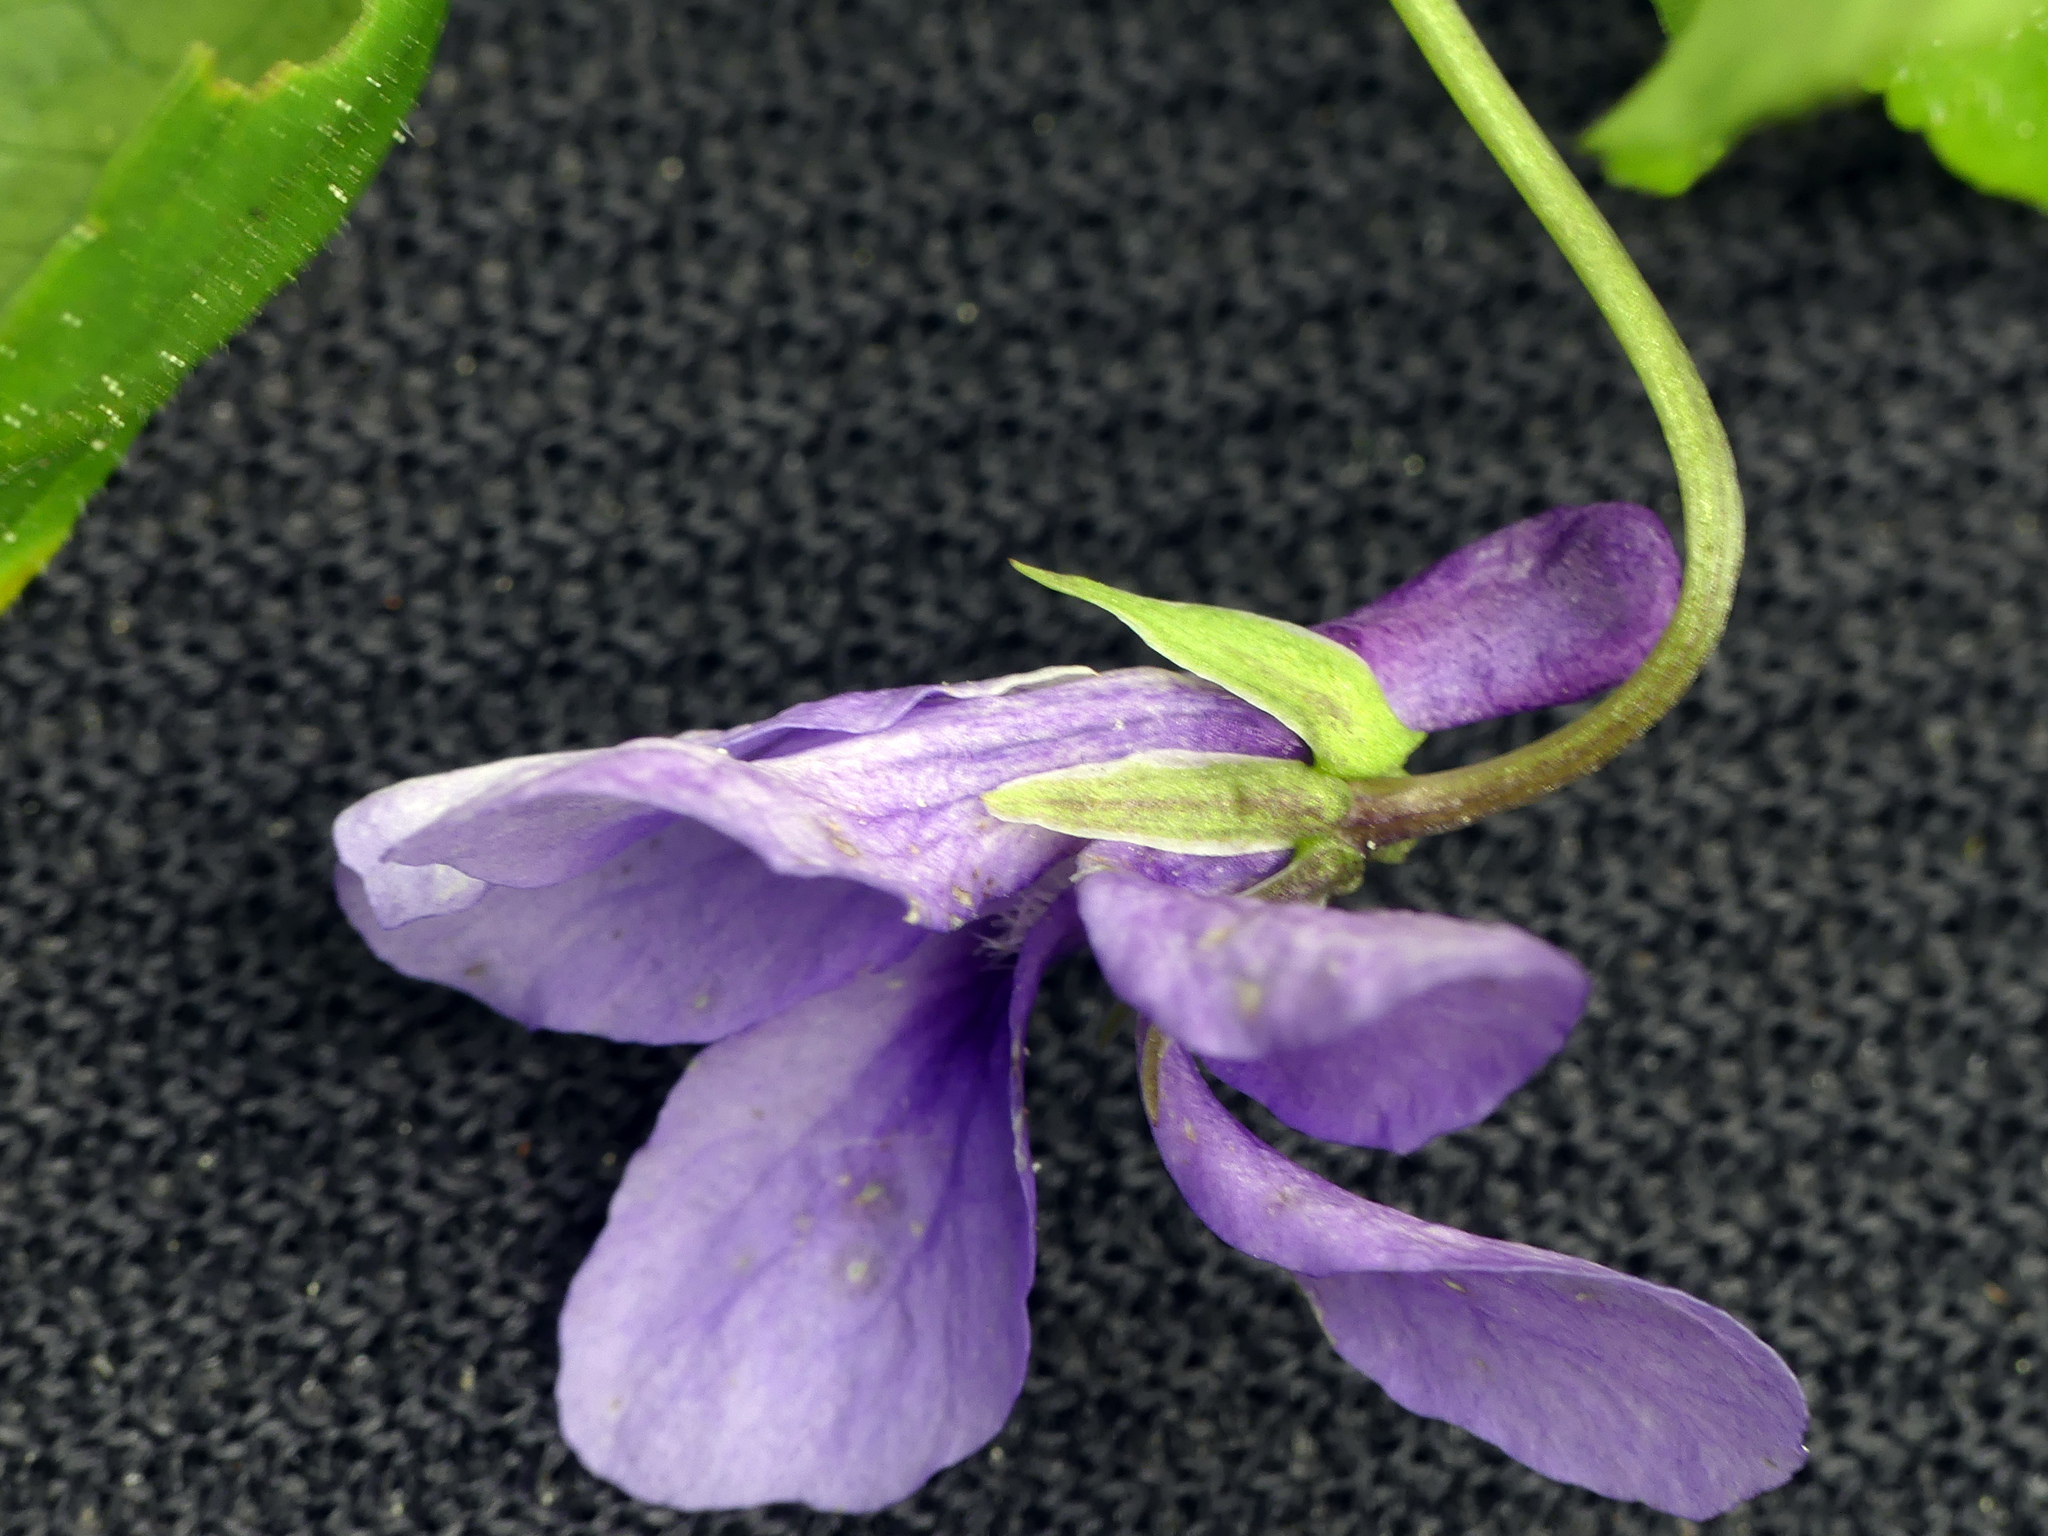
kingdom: Plantae
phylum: Tracheophyta
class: Magnoliopsida
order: Malpighiales
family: Violaceae
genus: Viola
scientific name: Viola reichenbachiana
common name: Early dog-violet
